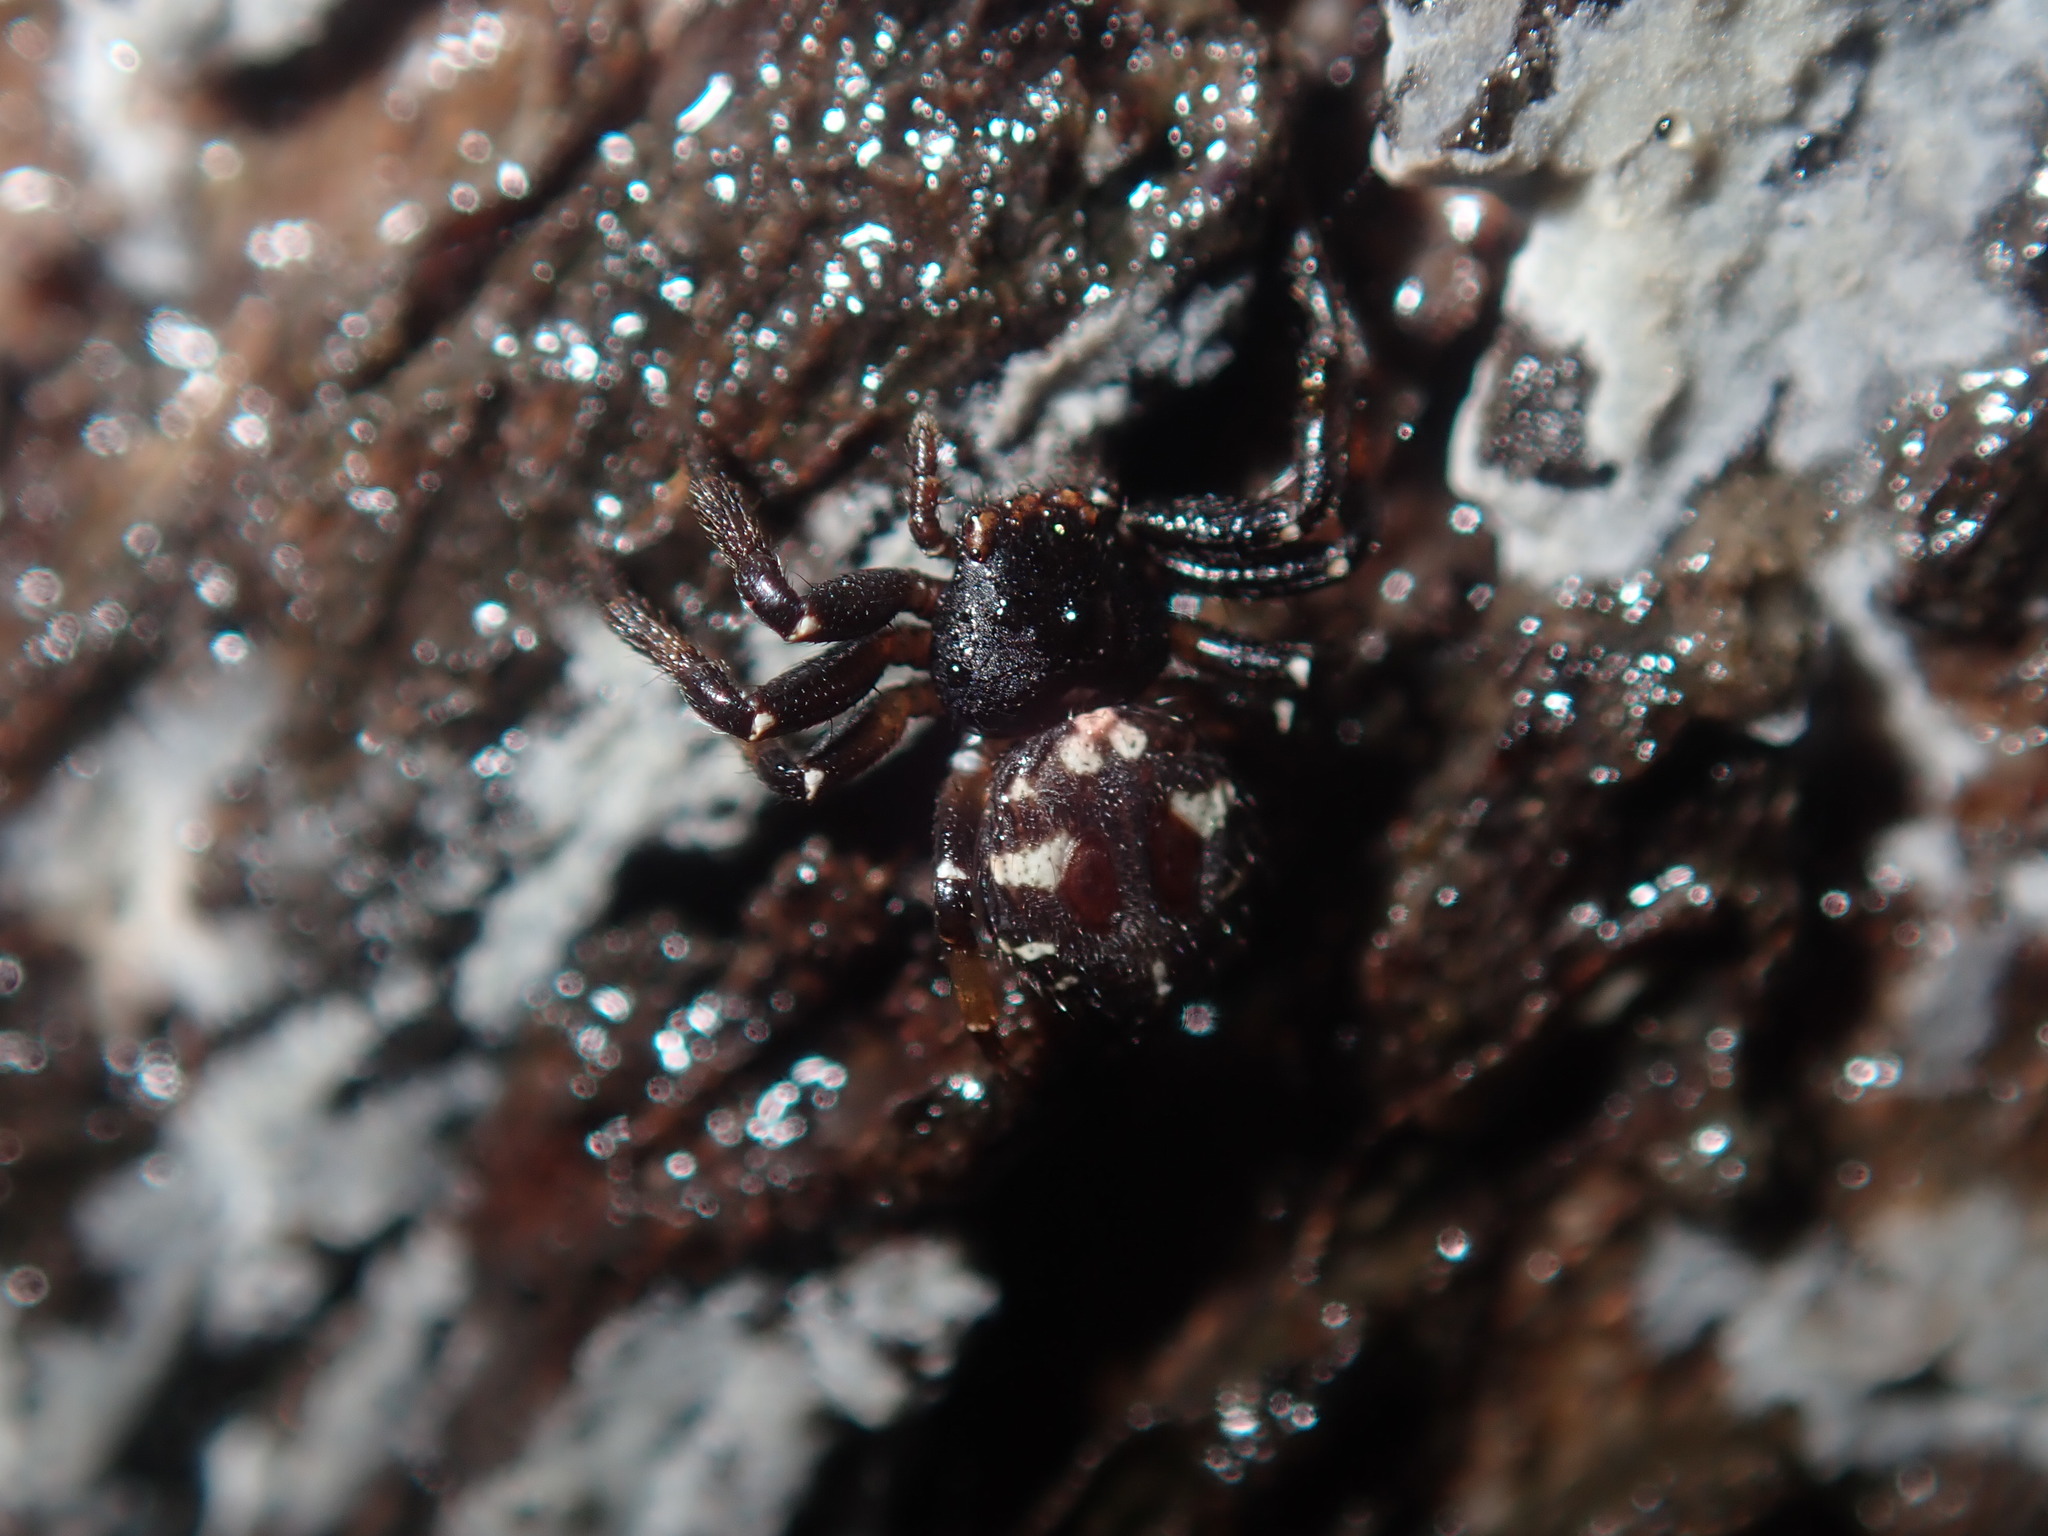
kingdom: Animalia
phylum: Arthropoda
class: Arachnida
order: Araneae
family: Thomisidae
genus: Tharpyna
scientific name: Tharpyna decorata
